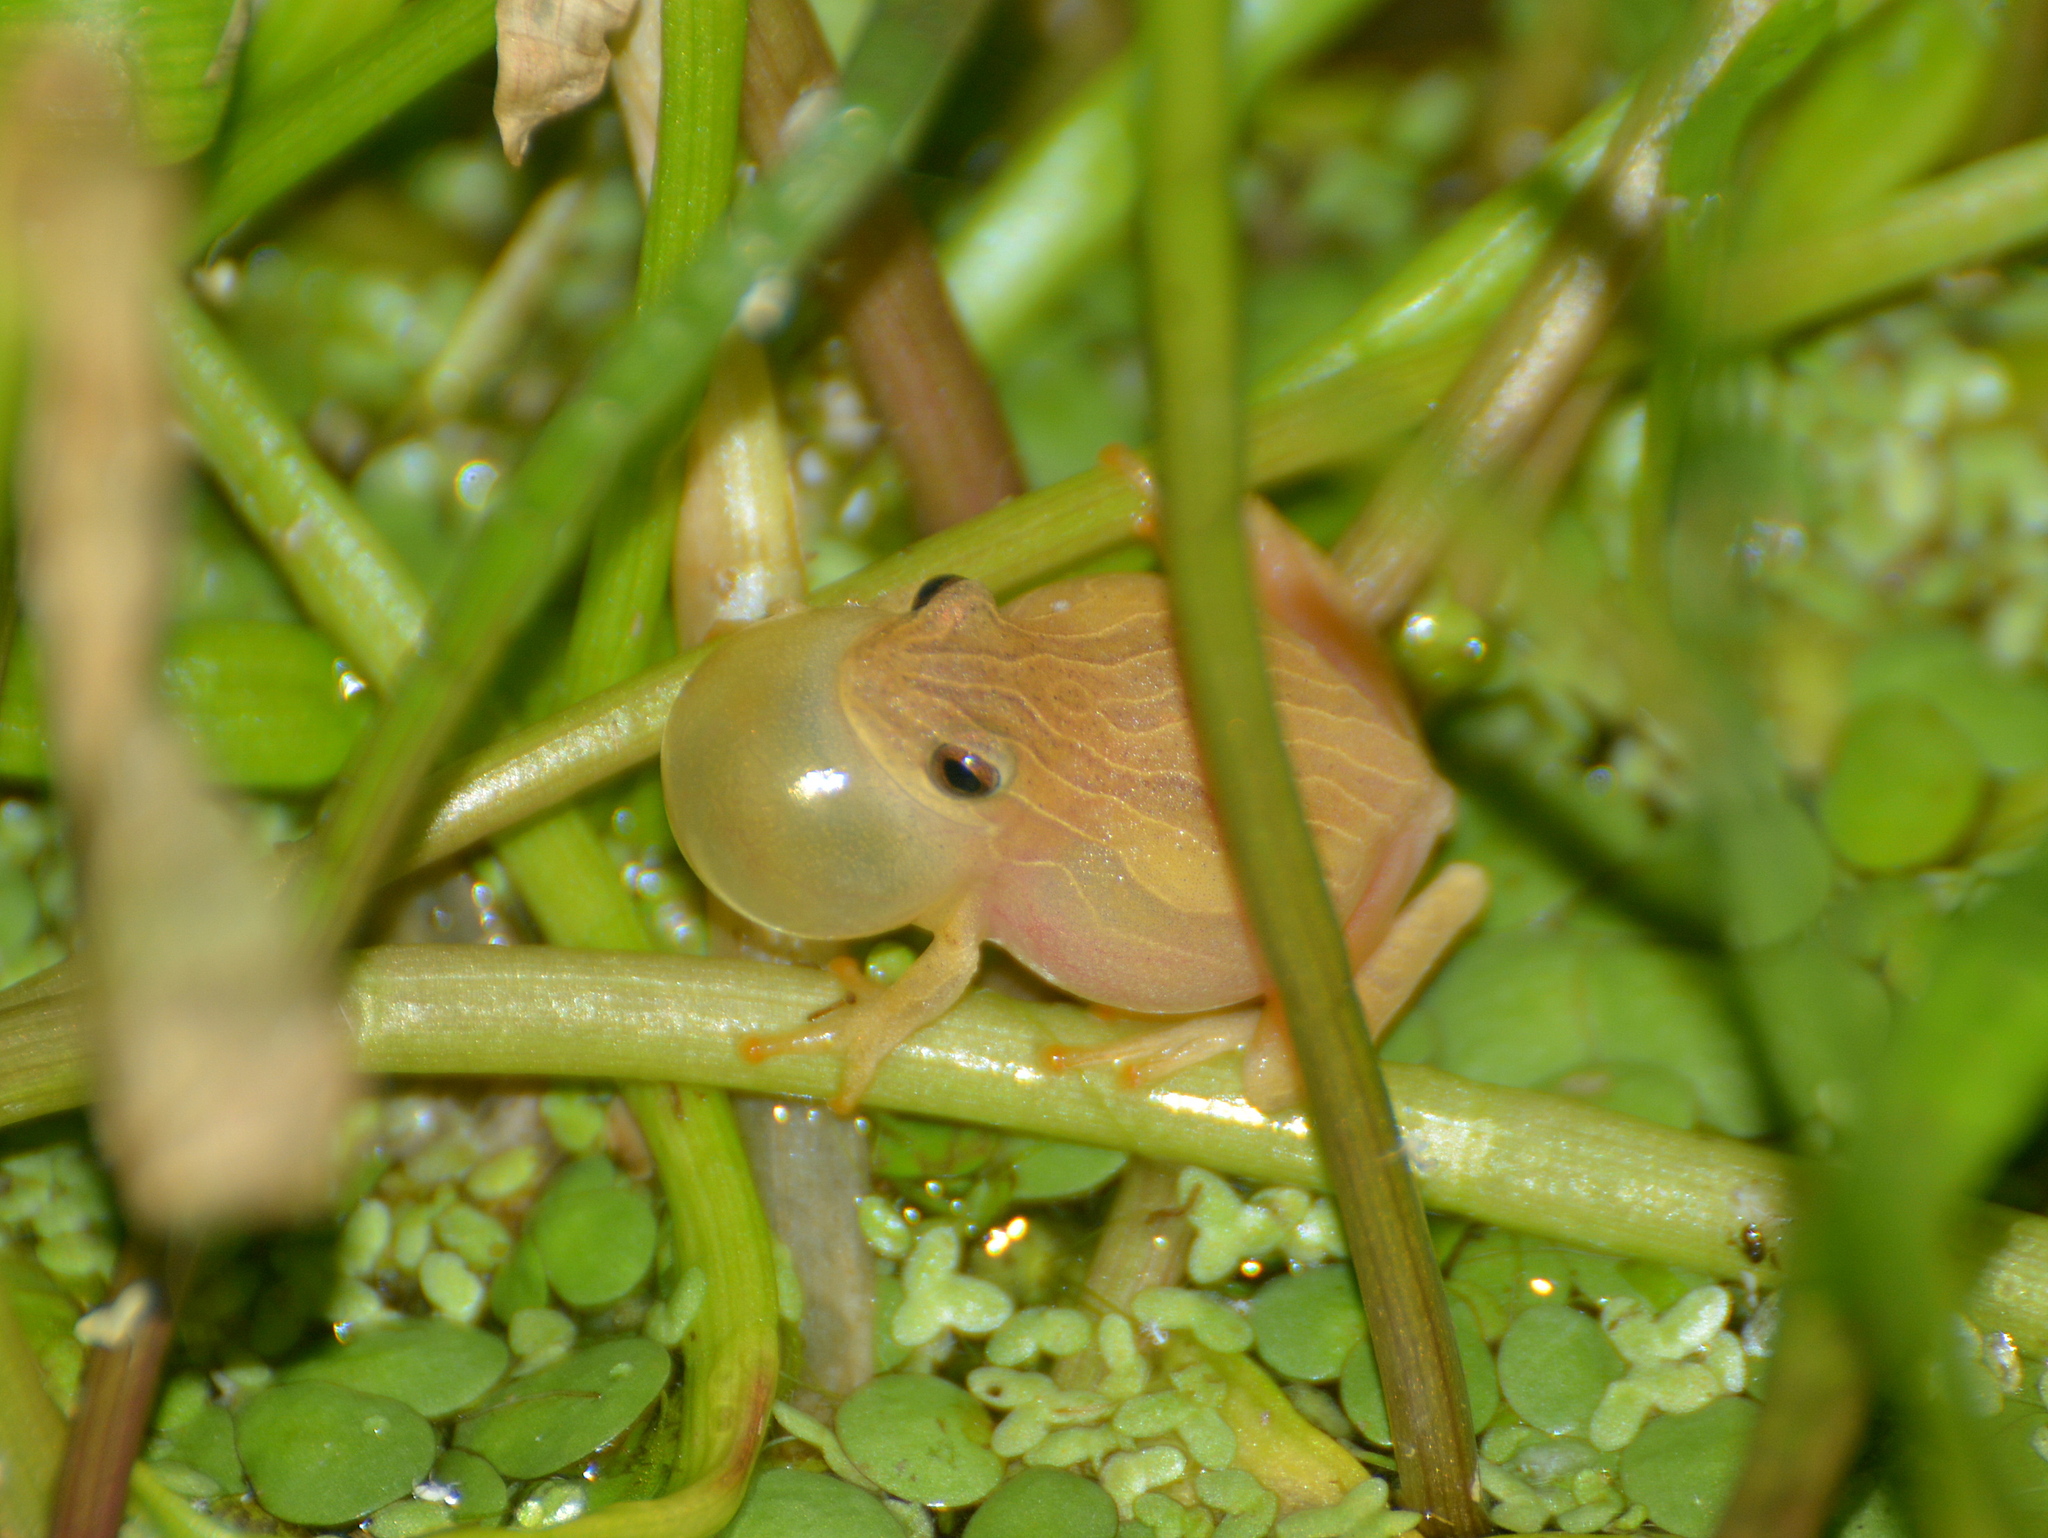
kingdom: Animalia
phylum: Chordata
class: Amphibia
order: Anura
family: Hylidae
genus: Dendropsophus
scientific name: Dendropsophus minutus
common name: Lesser treefrog
